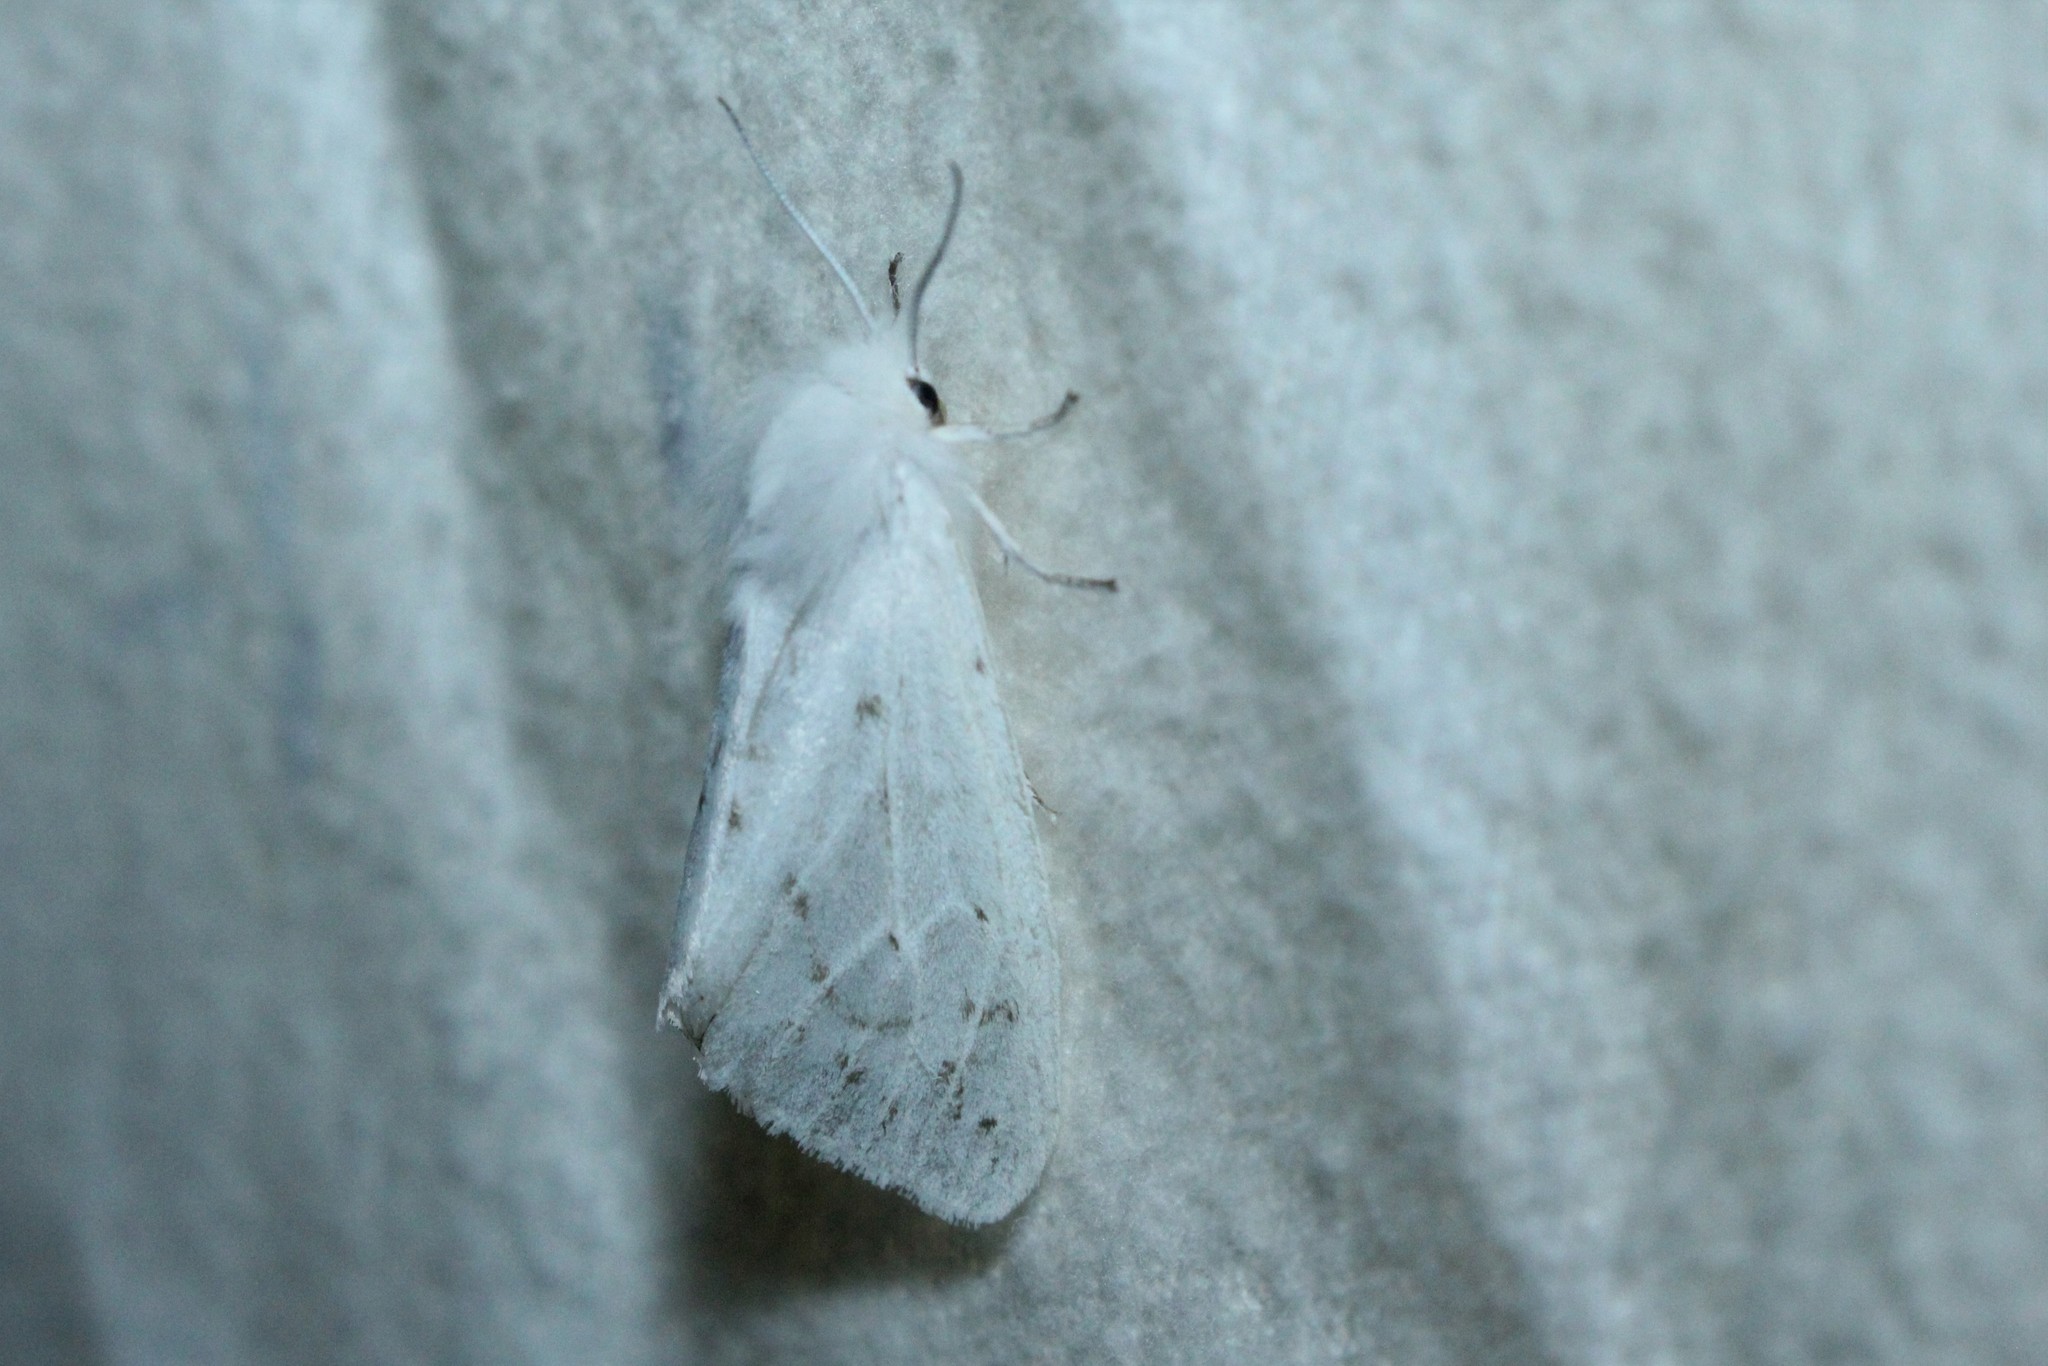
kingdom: Animalia
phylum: Arthropoda
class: Insecta
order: Lepidoptera
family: Erebidae
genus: Spilosoma
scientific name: Spilosoma dubia
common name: Dubious tiger moth
